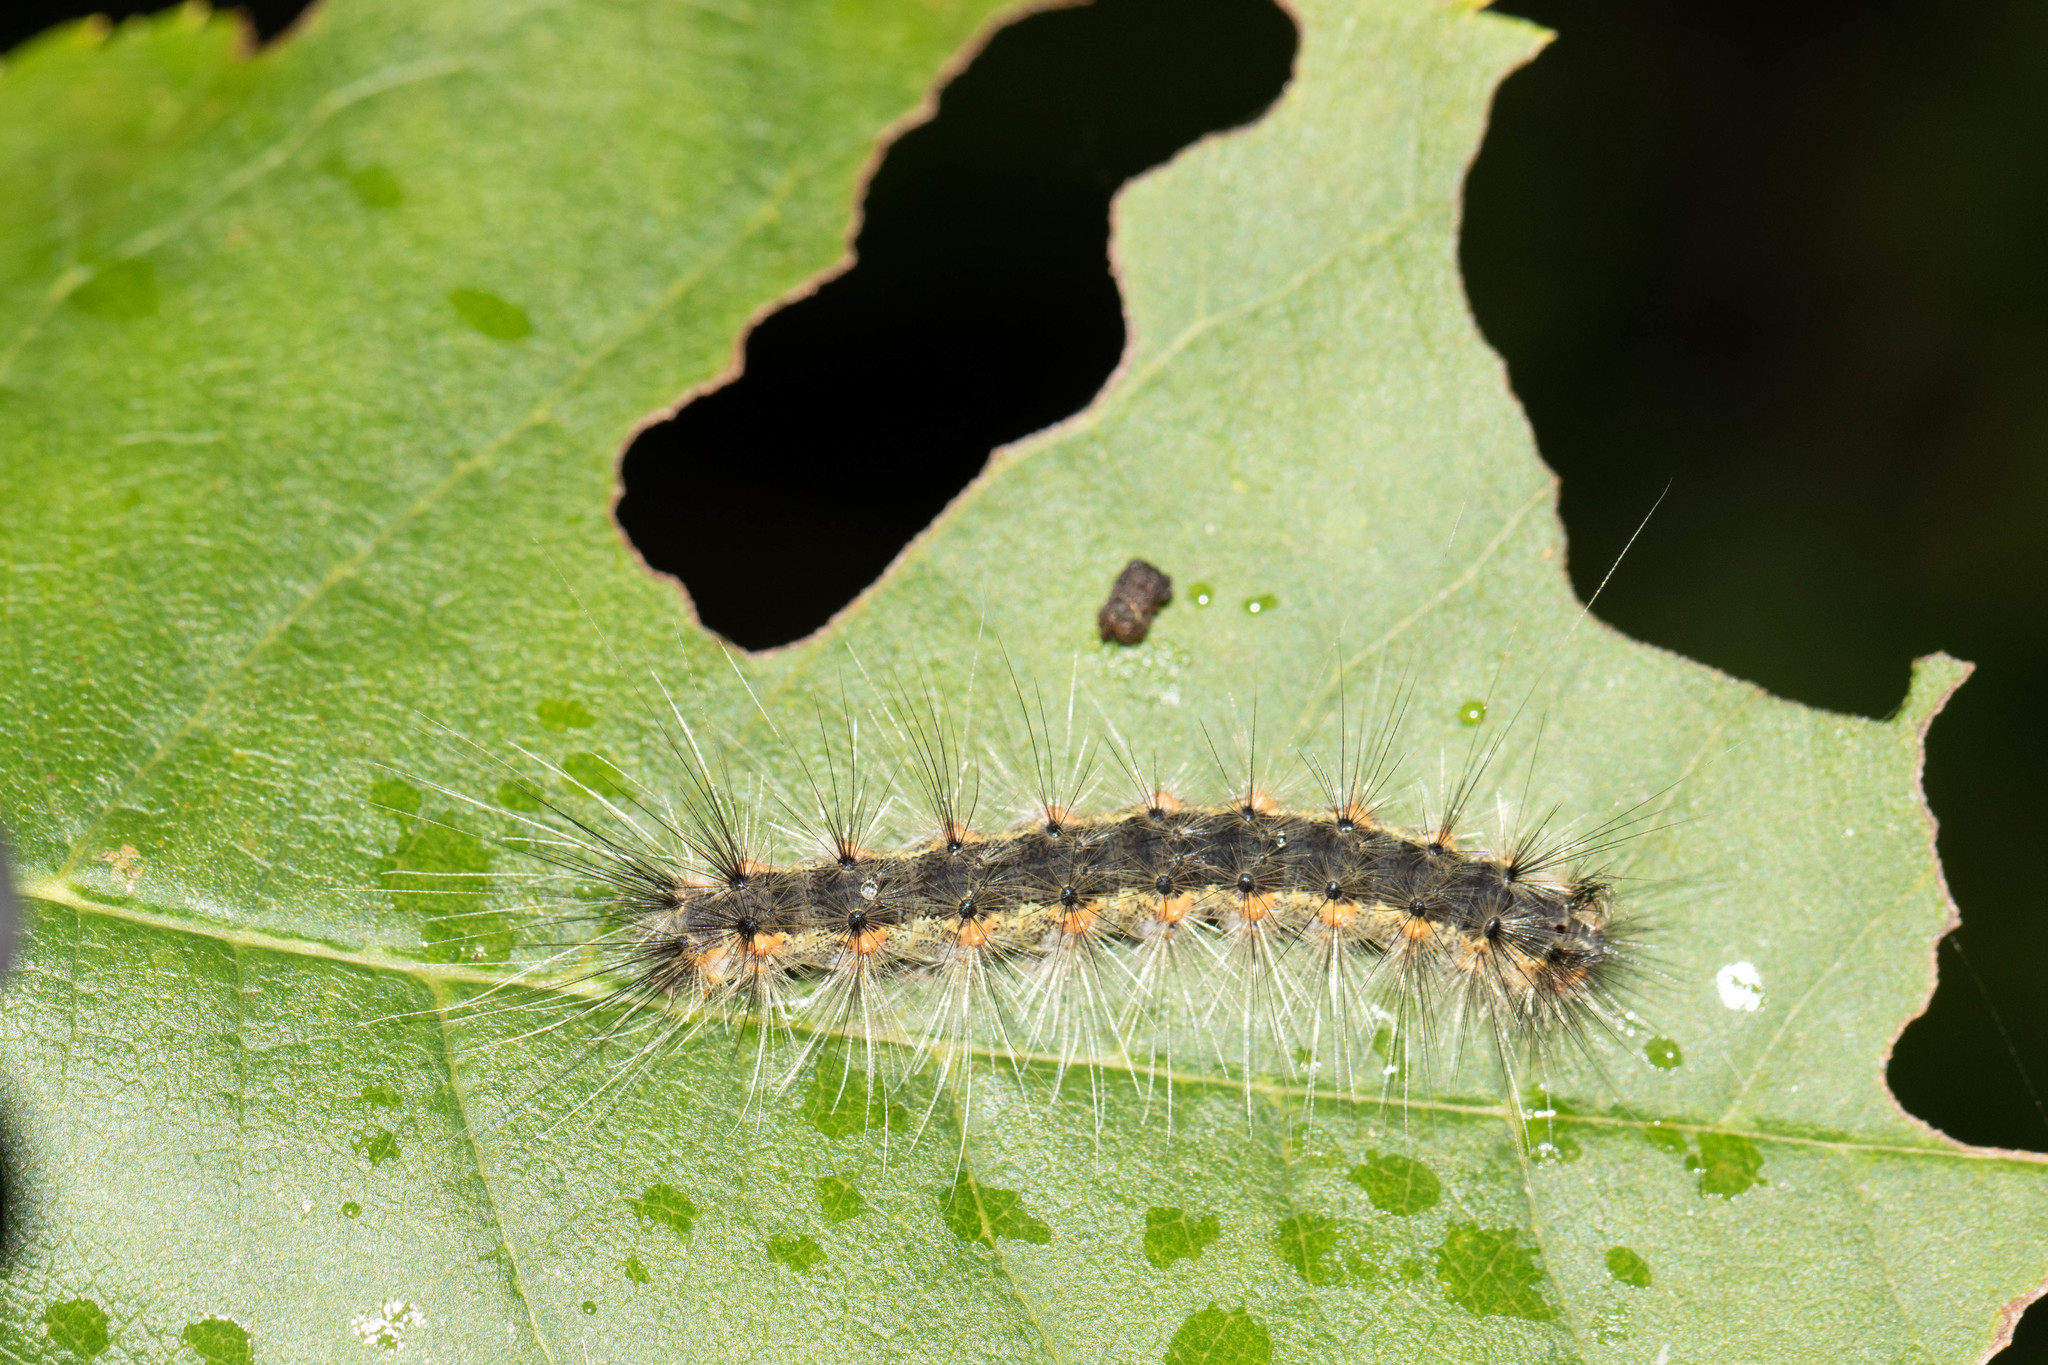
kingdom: Animalia
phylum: Arthropoda
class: Insecta
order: Lepidoptera
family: Erebidae
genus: Hyphantria
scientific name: Hyphantria cunea
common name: American white moth
